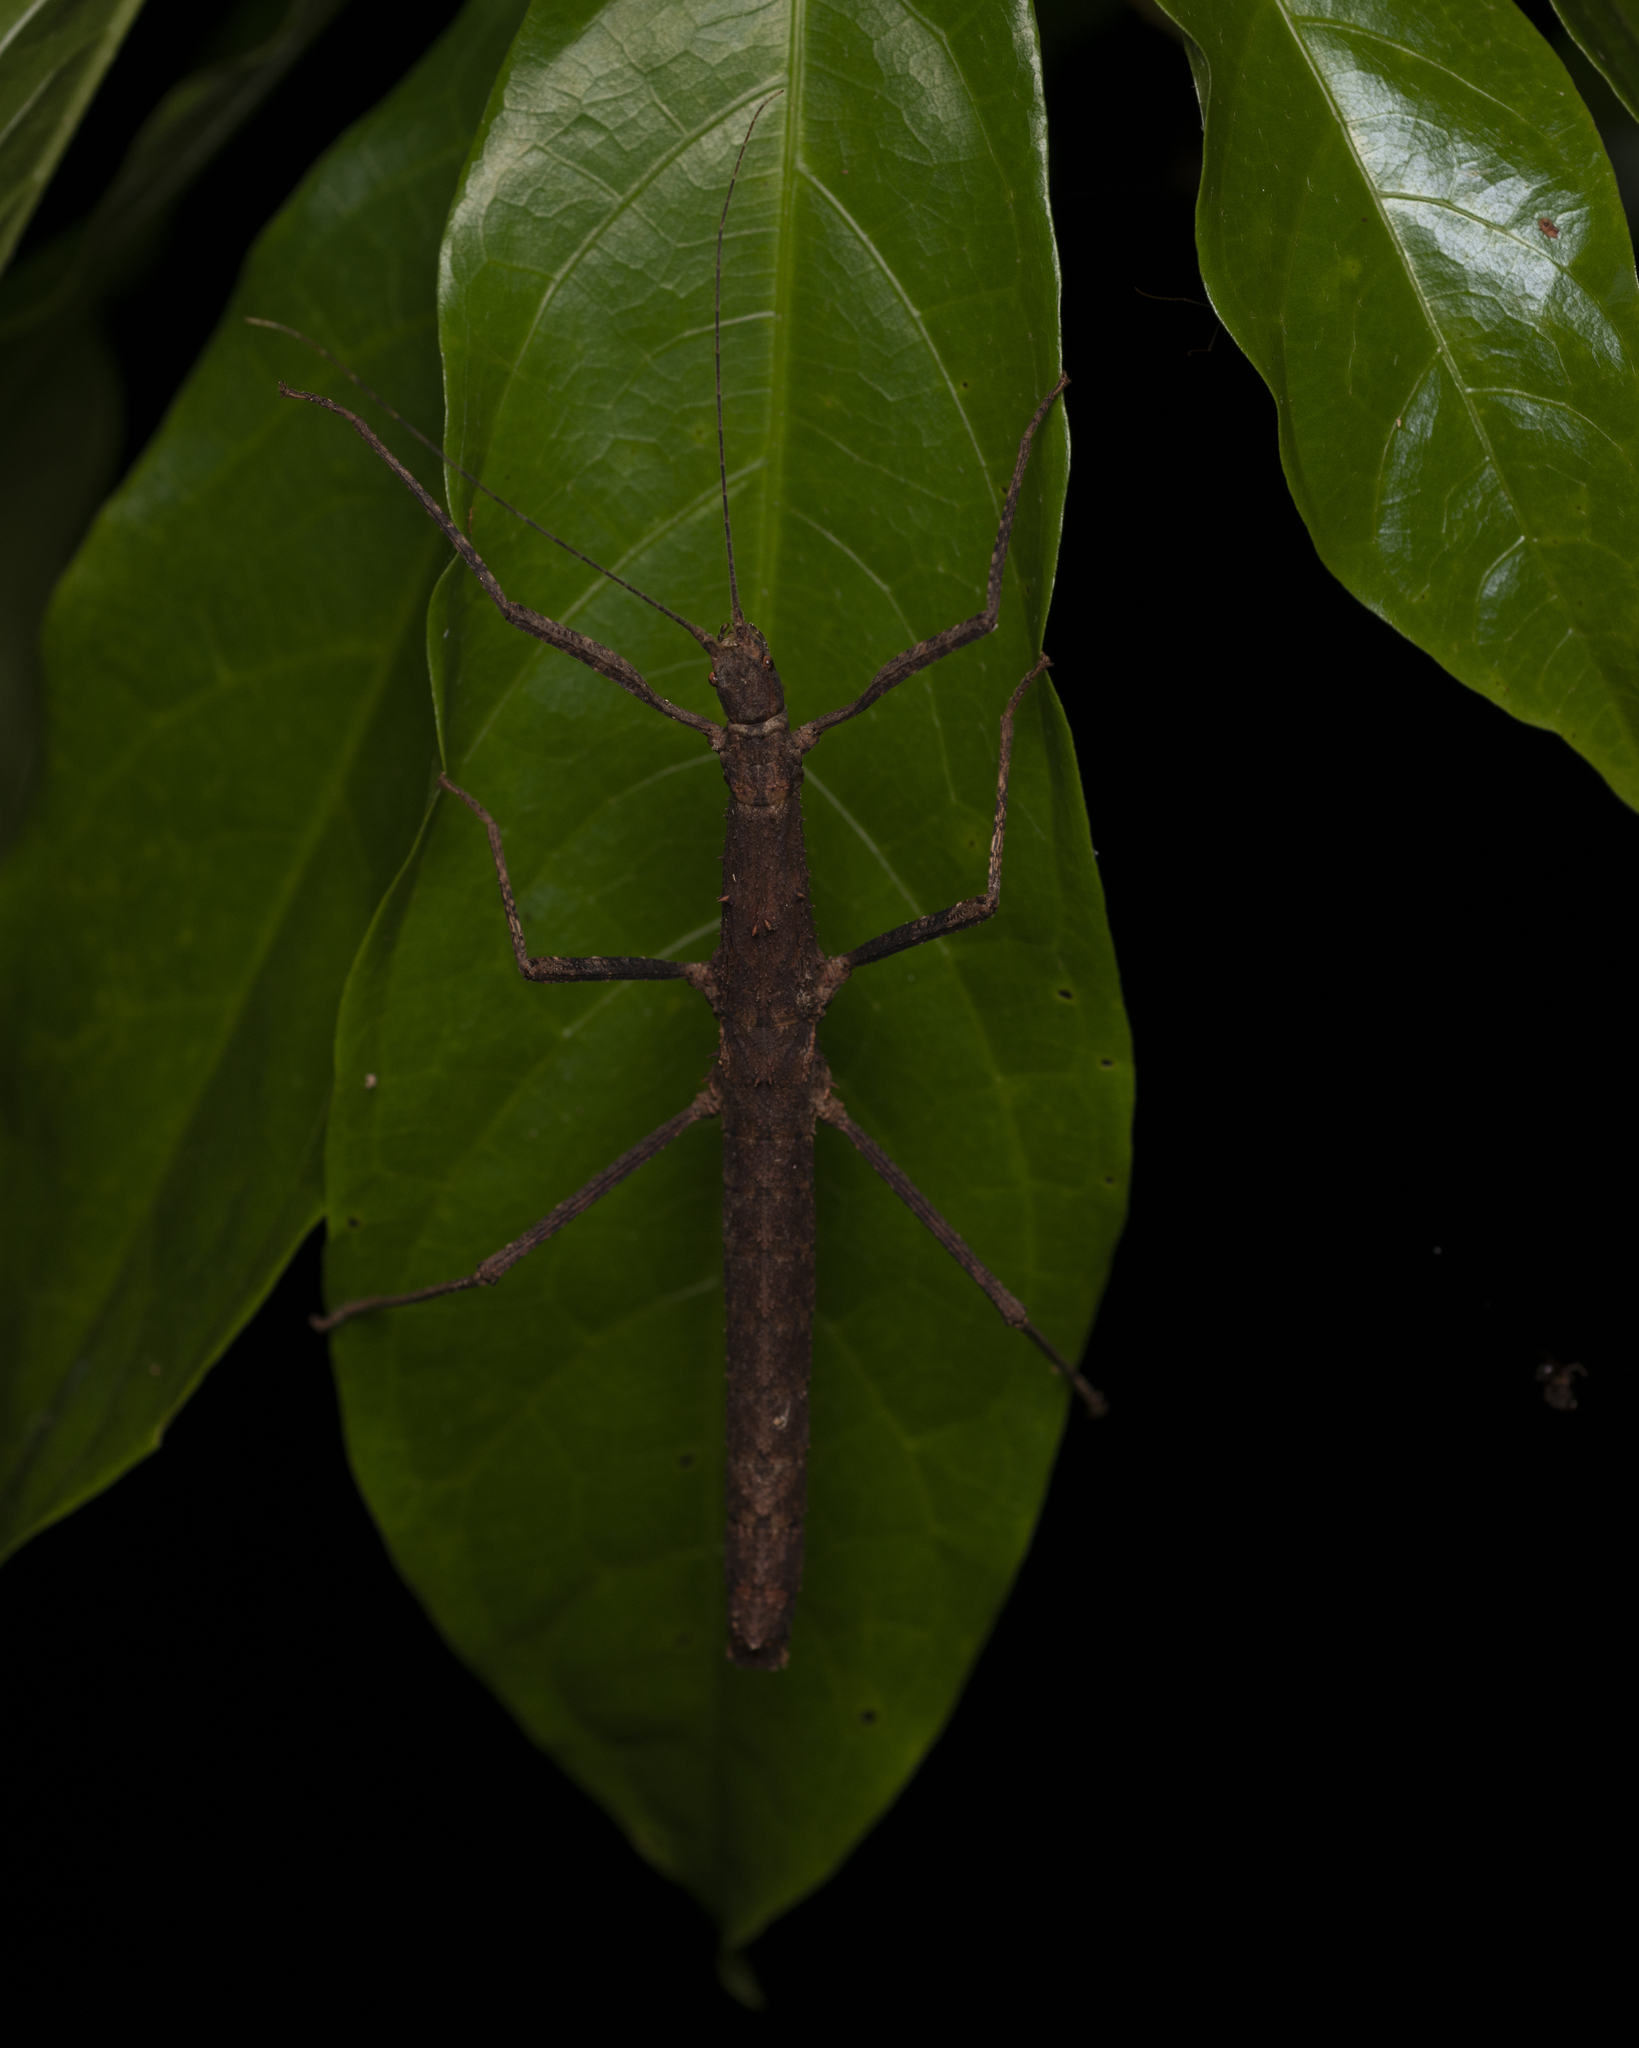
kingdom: Animalia
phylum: Arthropoda
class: Insecta
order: Phasmida
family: Lonchodidae
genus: Neohirasea
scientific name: Neohirasea hongkongensis
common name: Hong kong spiny stick insect
